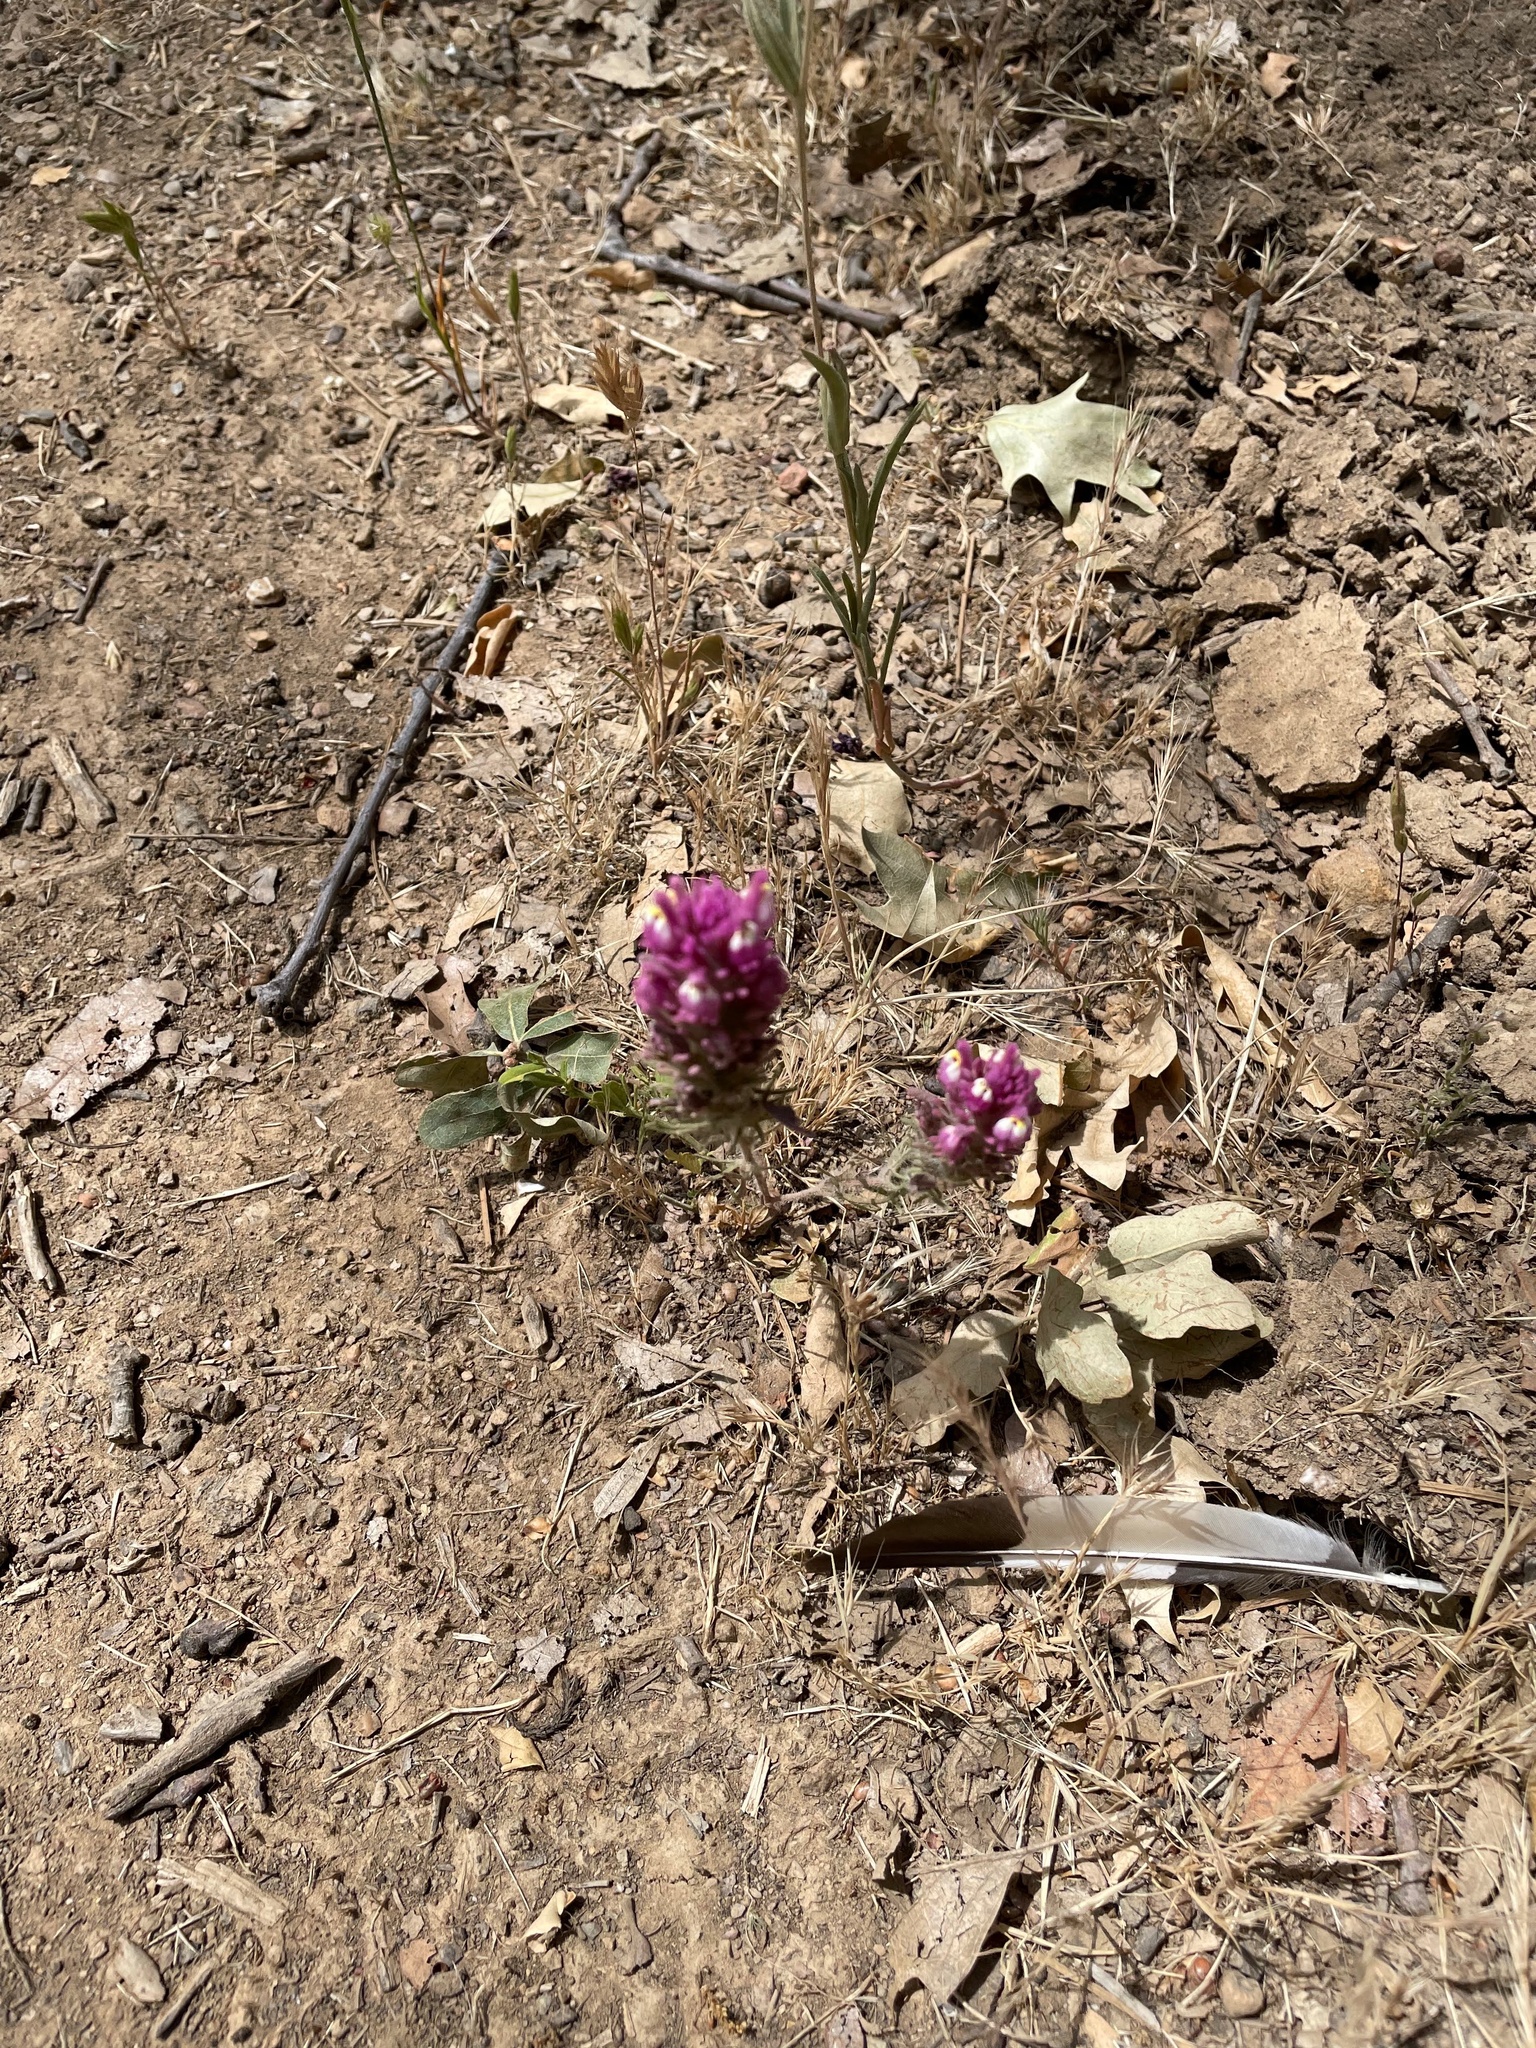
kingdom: Plantae
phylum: Tracheophyta
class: Magnoliopsida
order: Lamiales
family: Orobanchaceae
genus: Castilleja
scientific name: Castilleja exserta
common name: Purple owl-clover
